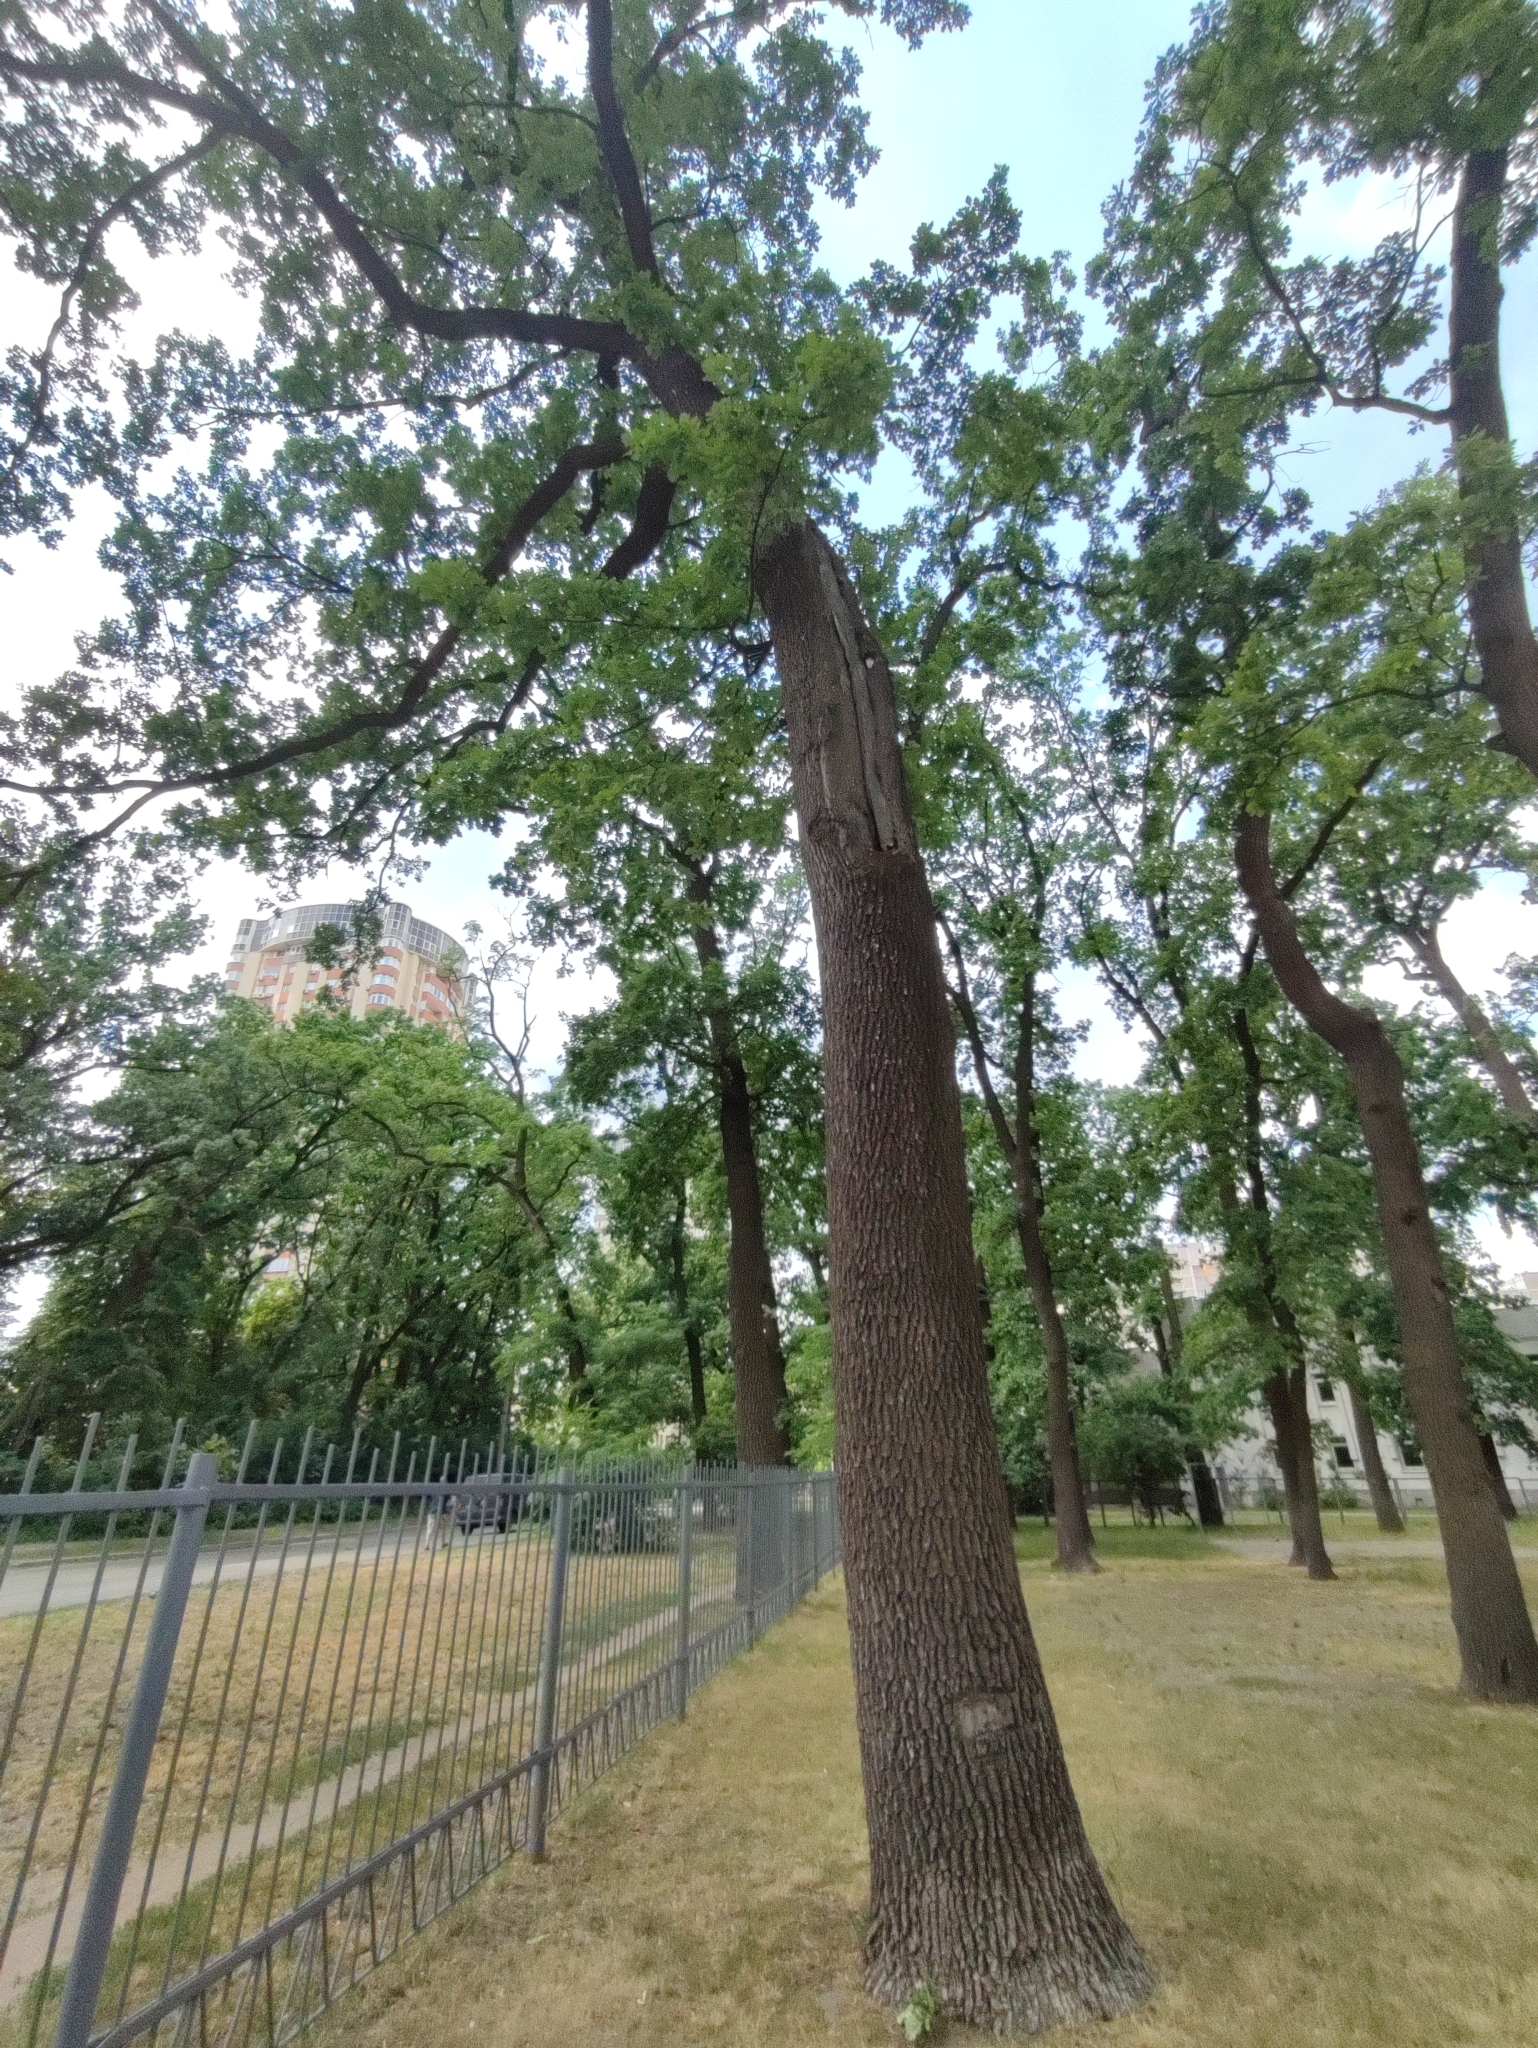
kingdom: Plantae
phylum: Tracheophyta
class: Magnoliopsida
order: Fagales
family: Fagaceae
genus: Quercus
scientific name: Quercus robur
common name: Pedunculate oak
